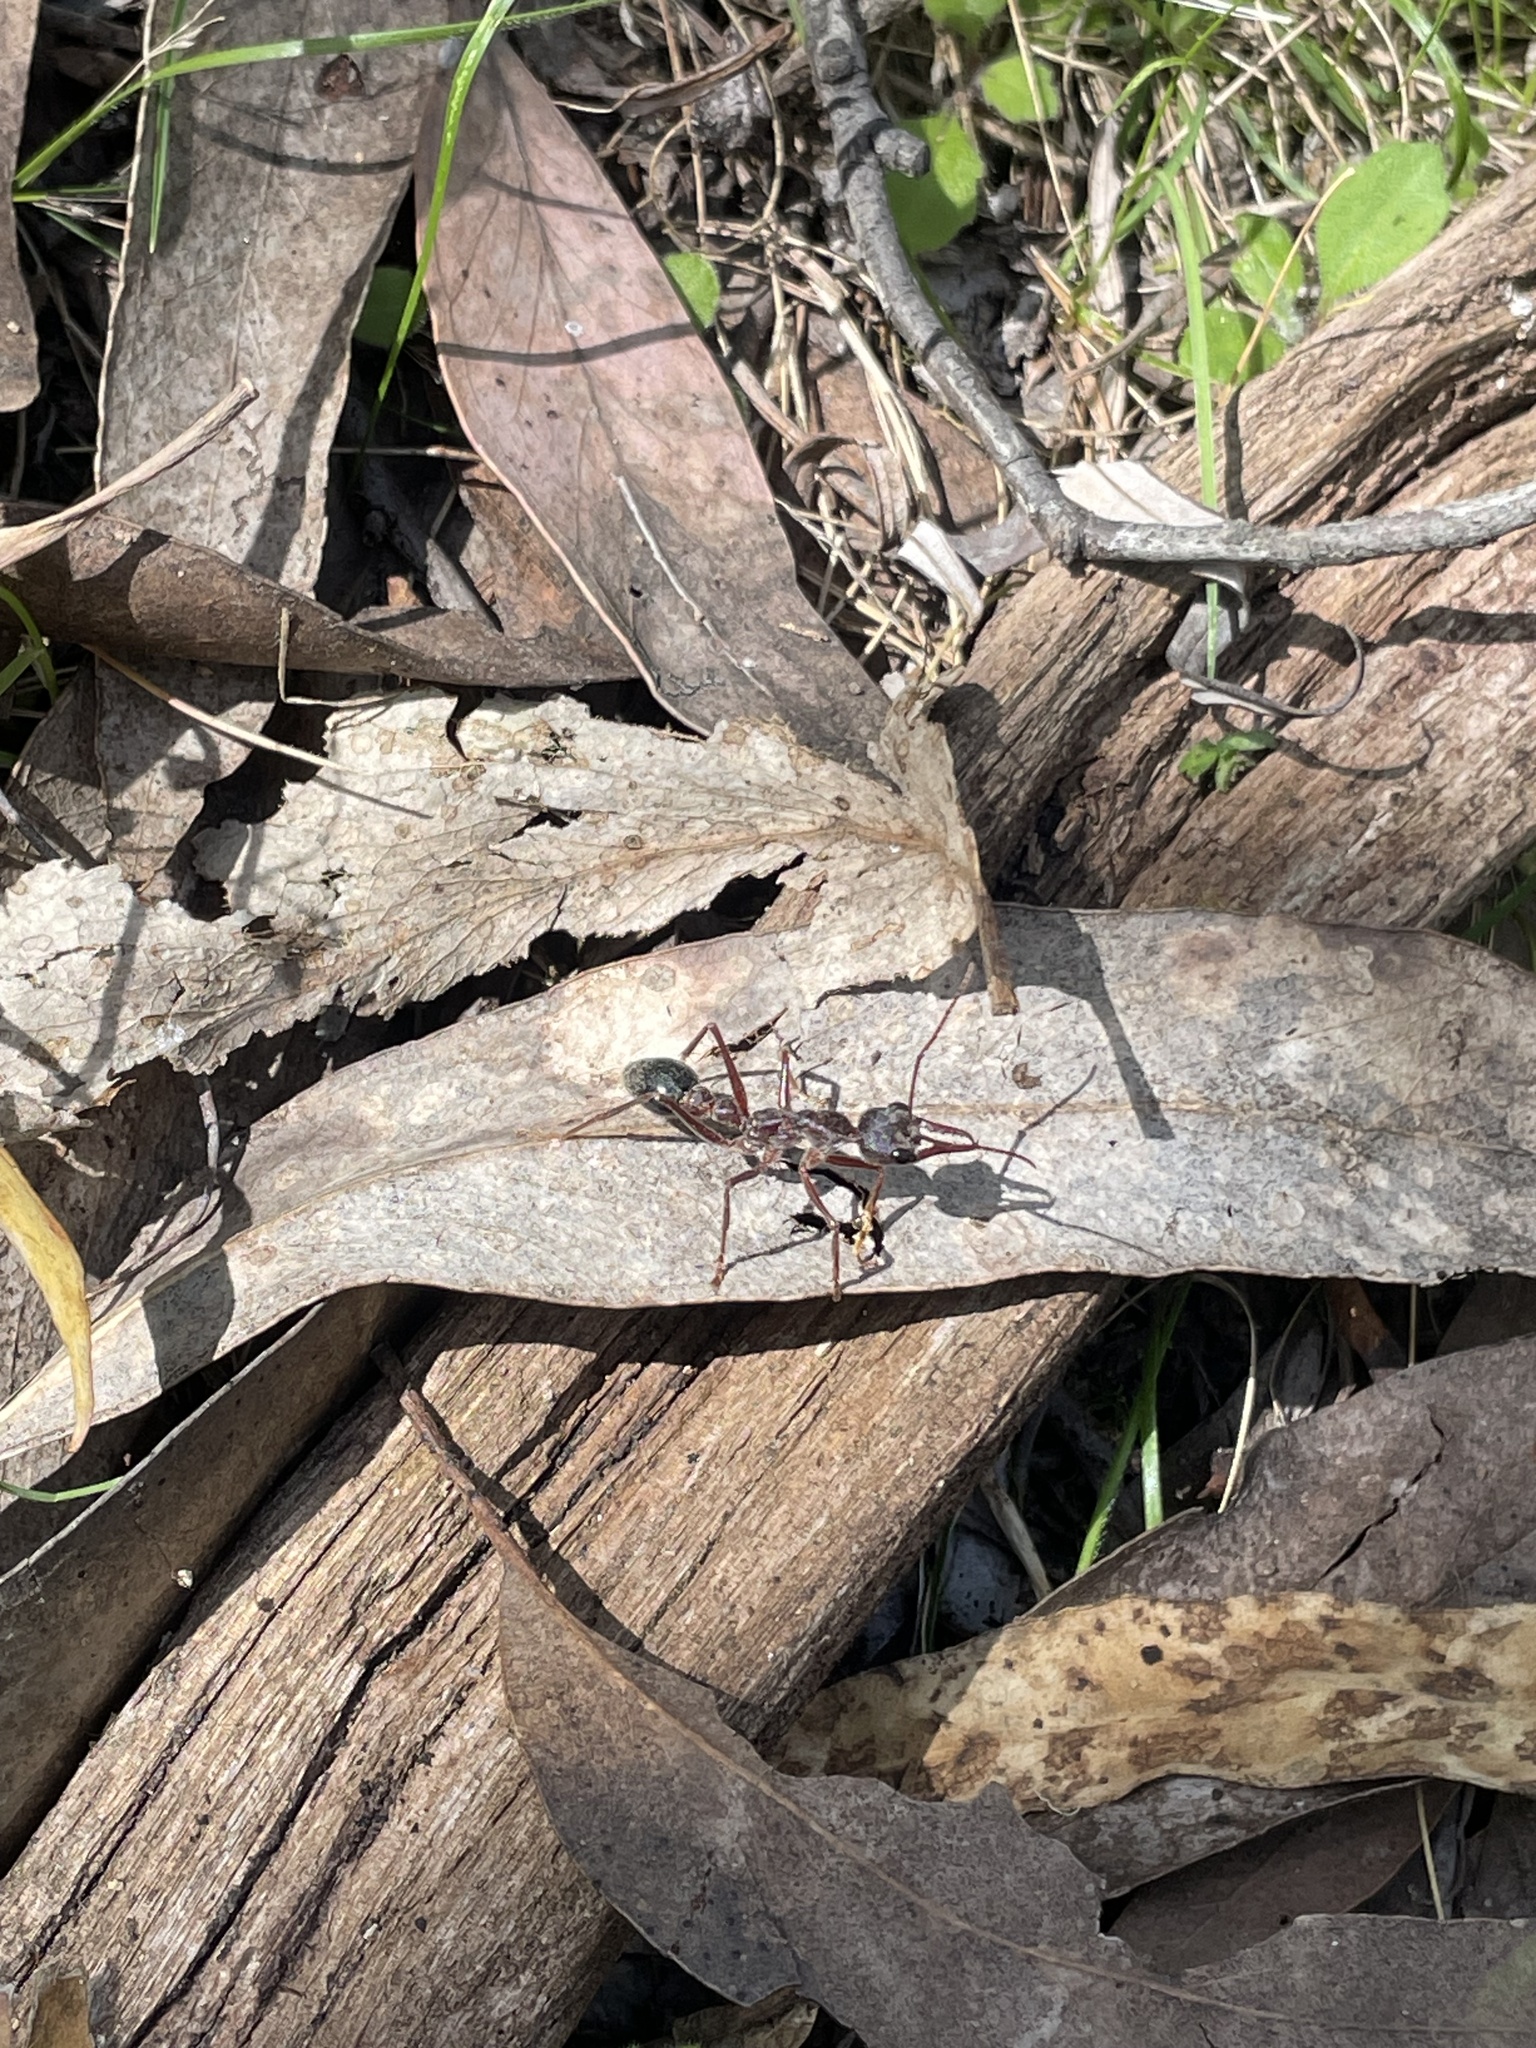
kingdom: Animalia
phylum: Arthropoda
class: Insecta
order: Hymenoptera
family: Formicidae
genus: Myrmecia
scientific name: Myrmecia pyriformis
